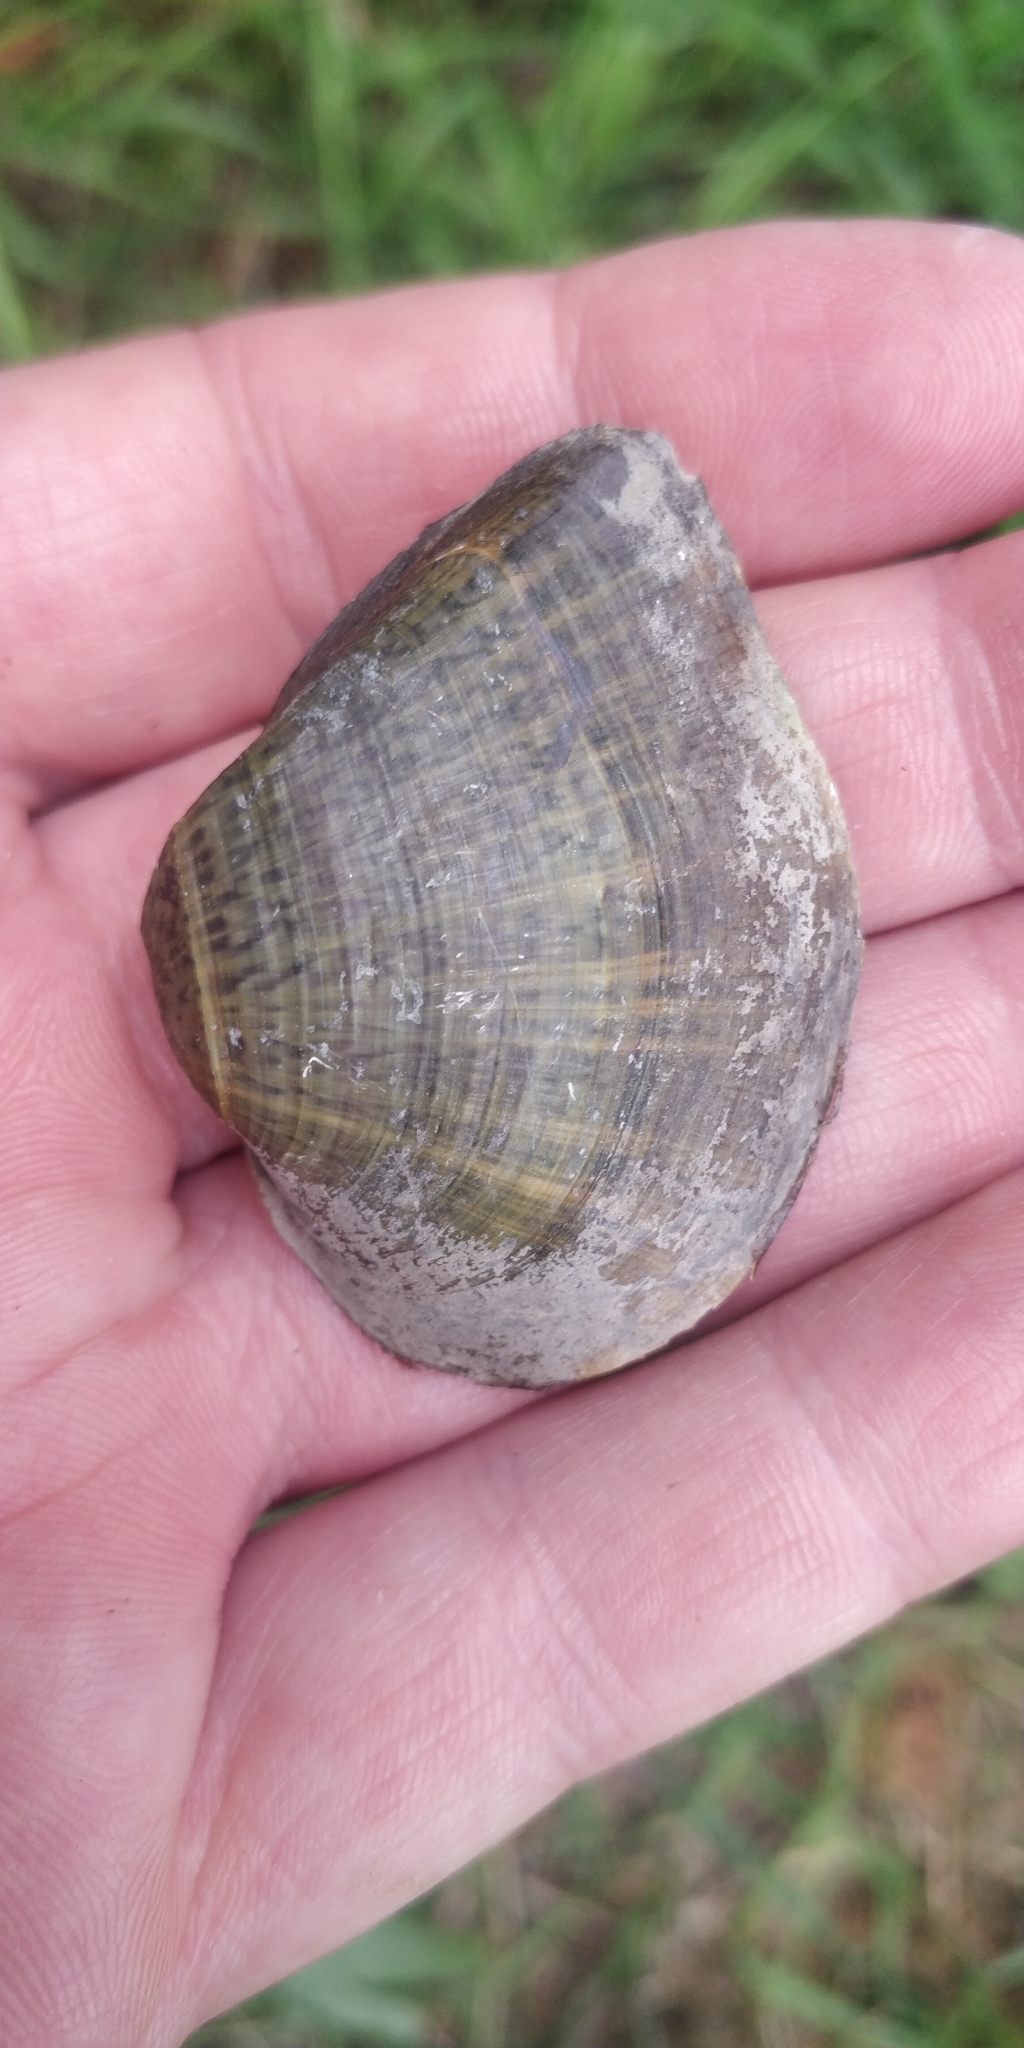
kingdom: Animalia
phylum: Mollusca
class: Bivalvia
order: Unionida
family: Unionidae
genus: Truncilla
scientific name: Truncilla truncata
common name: Deertoe
